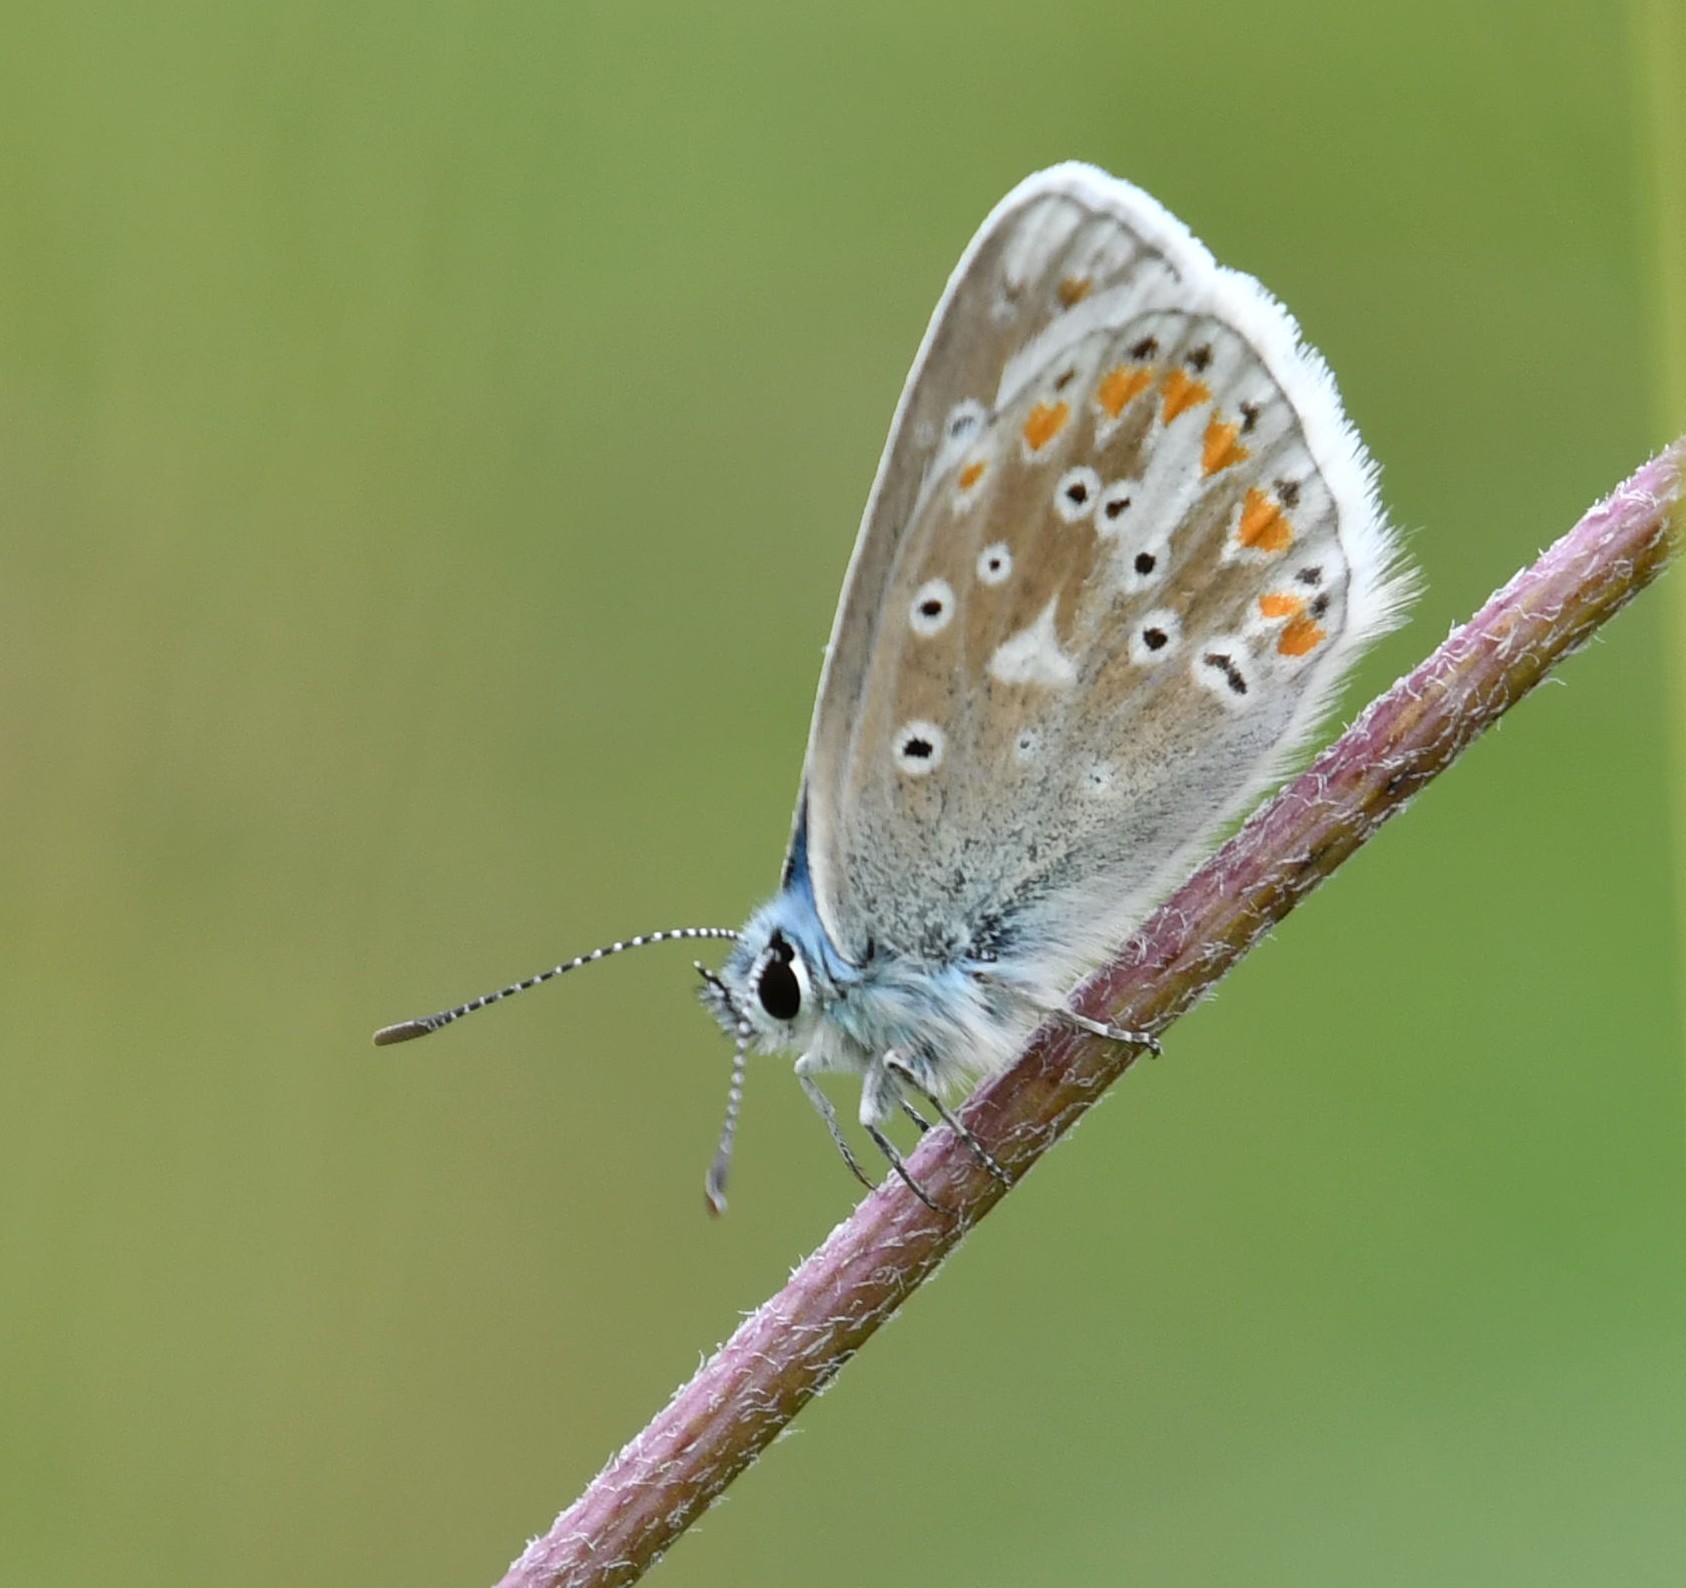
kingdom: Animalia
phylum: Arthropoda
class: Insecta
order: Lepidoptera
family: Nymphalidae
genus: Aglais
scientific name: Aglais urticae
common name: Small tortoiseshell
